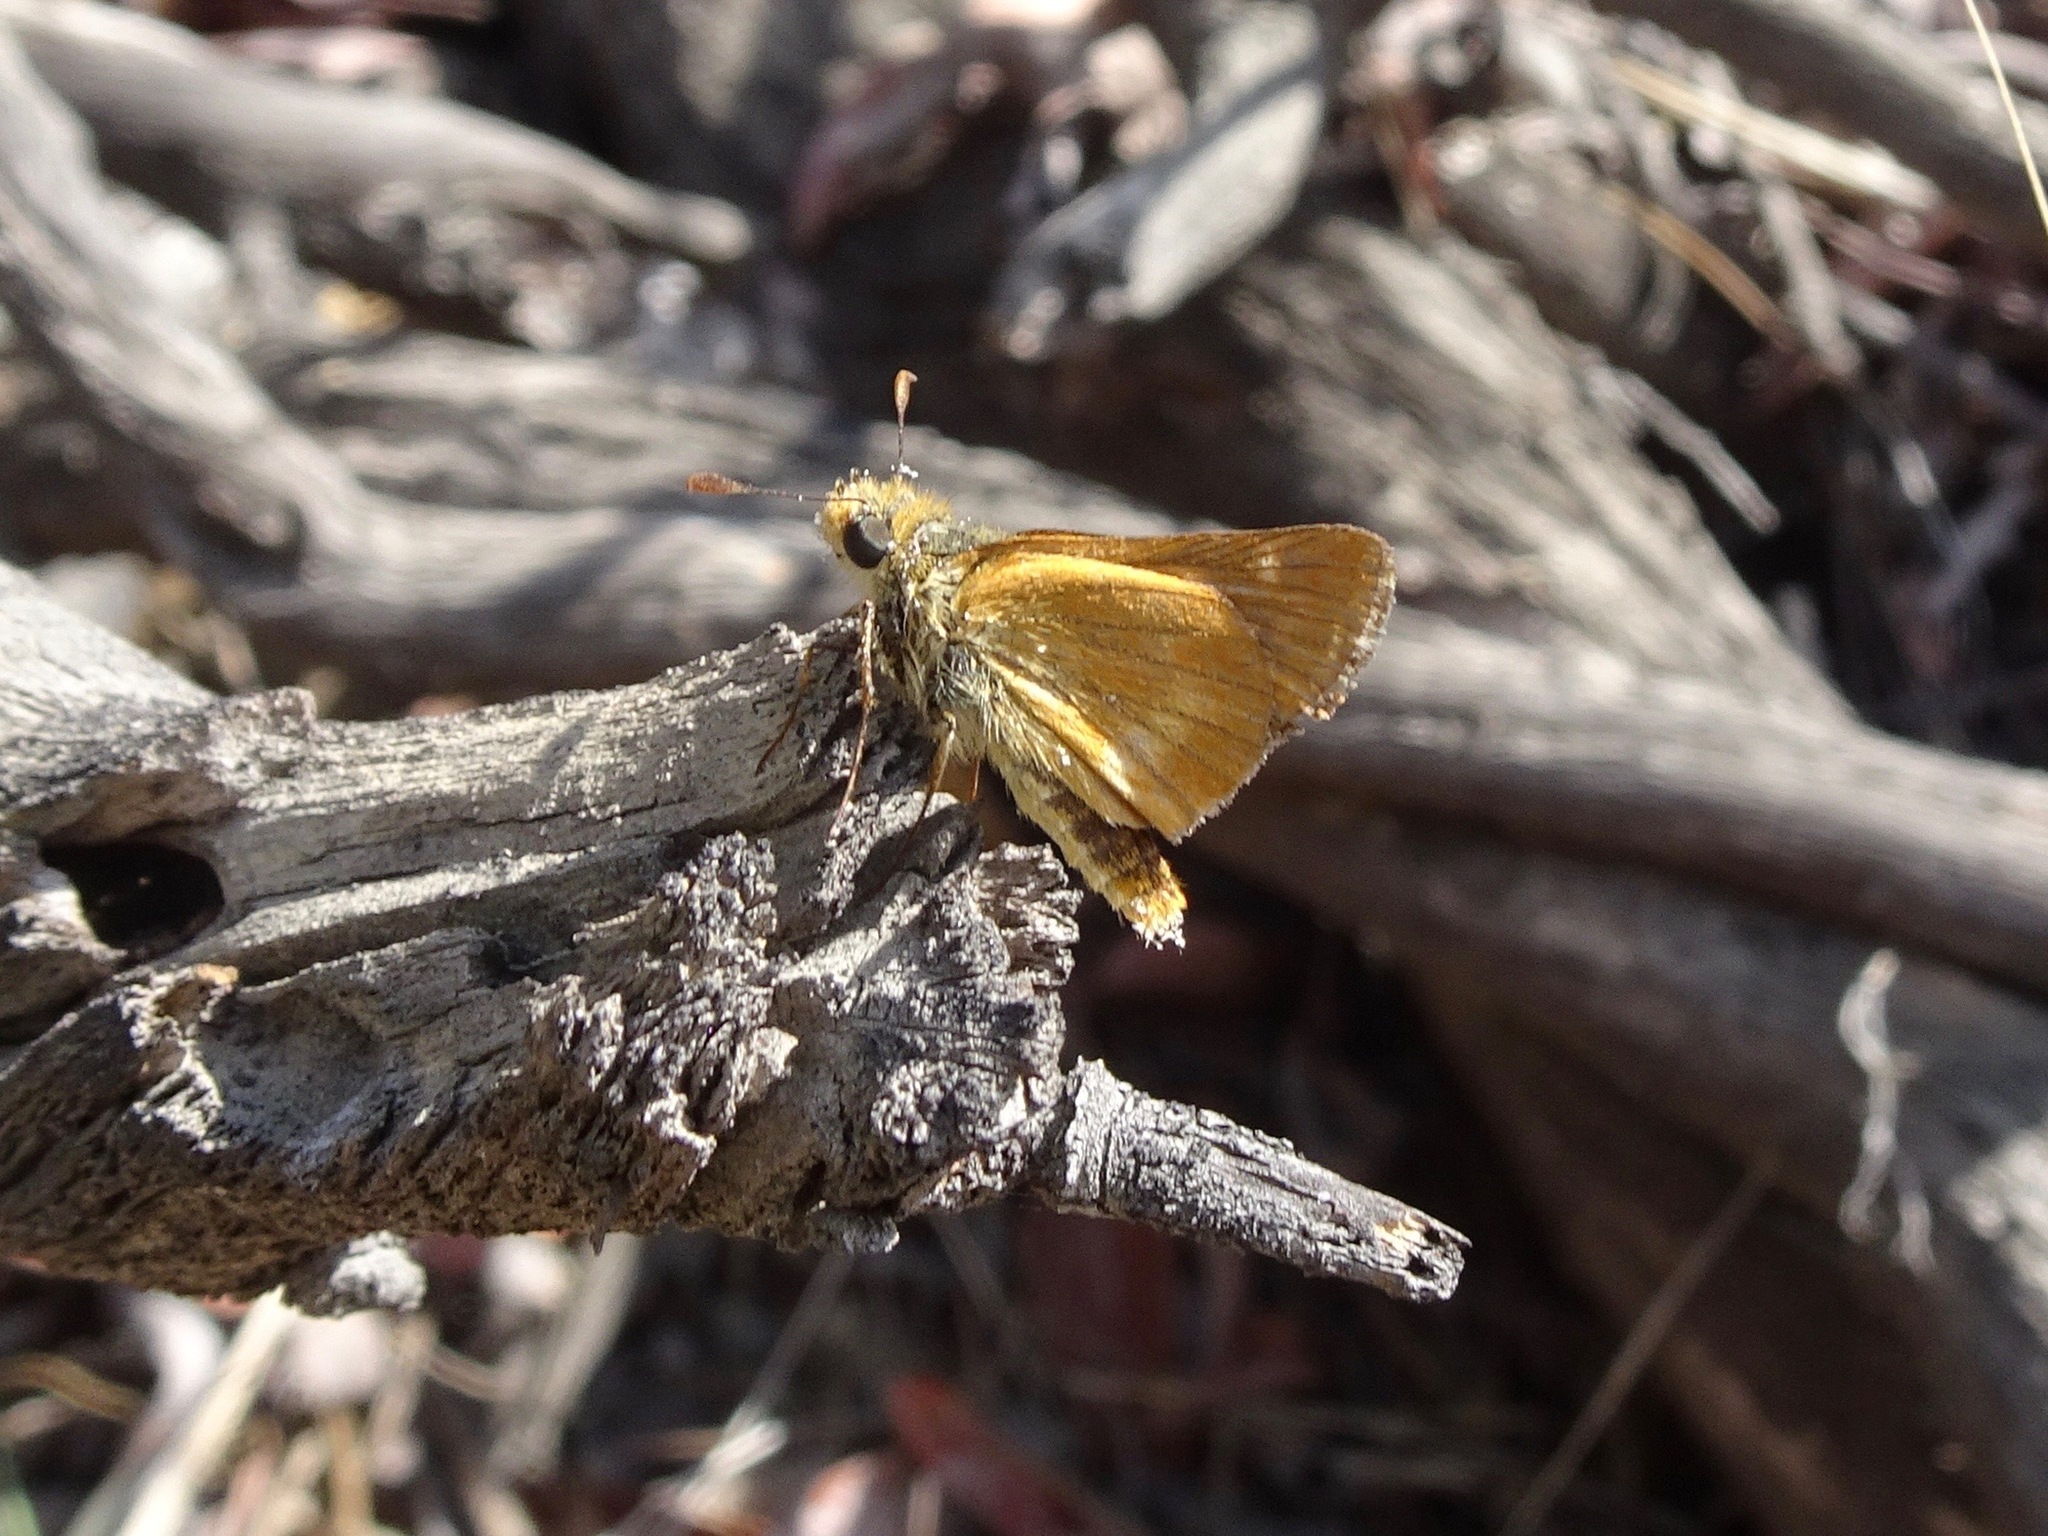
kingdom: Animalia
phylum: Arthropoda
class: Insecta
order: Lepidoptera
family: Hesperiidae
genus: Ochlodes
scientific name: Ochlodes agricola
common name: Rural skipper
